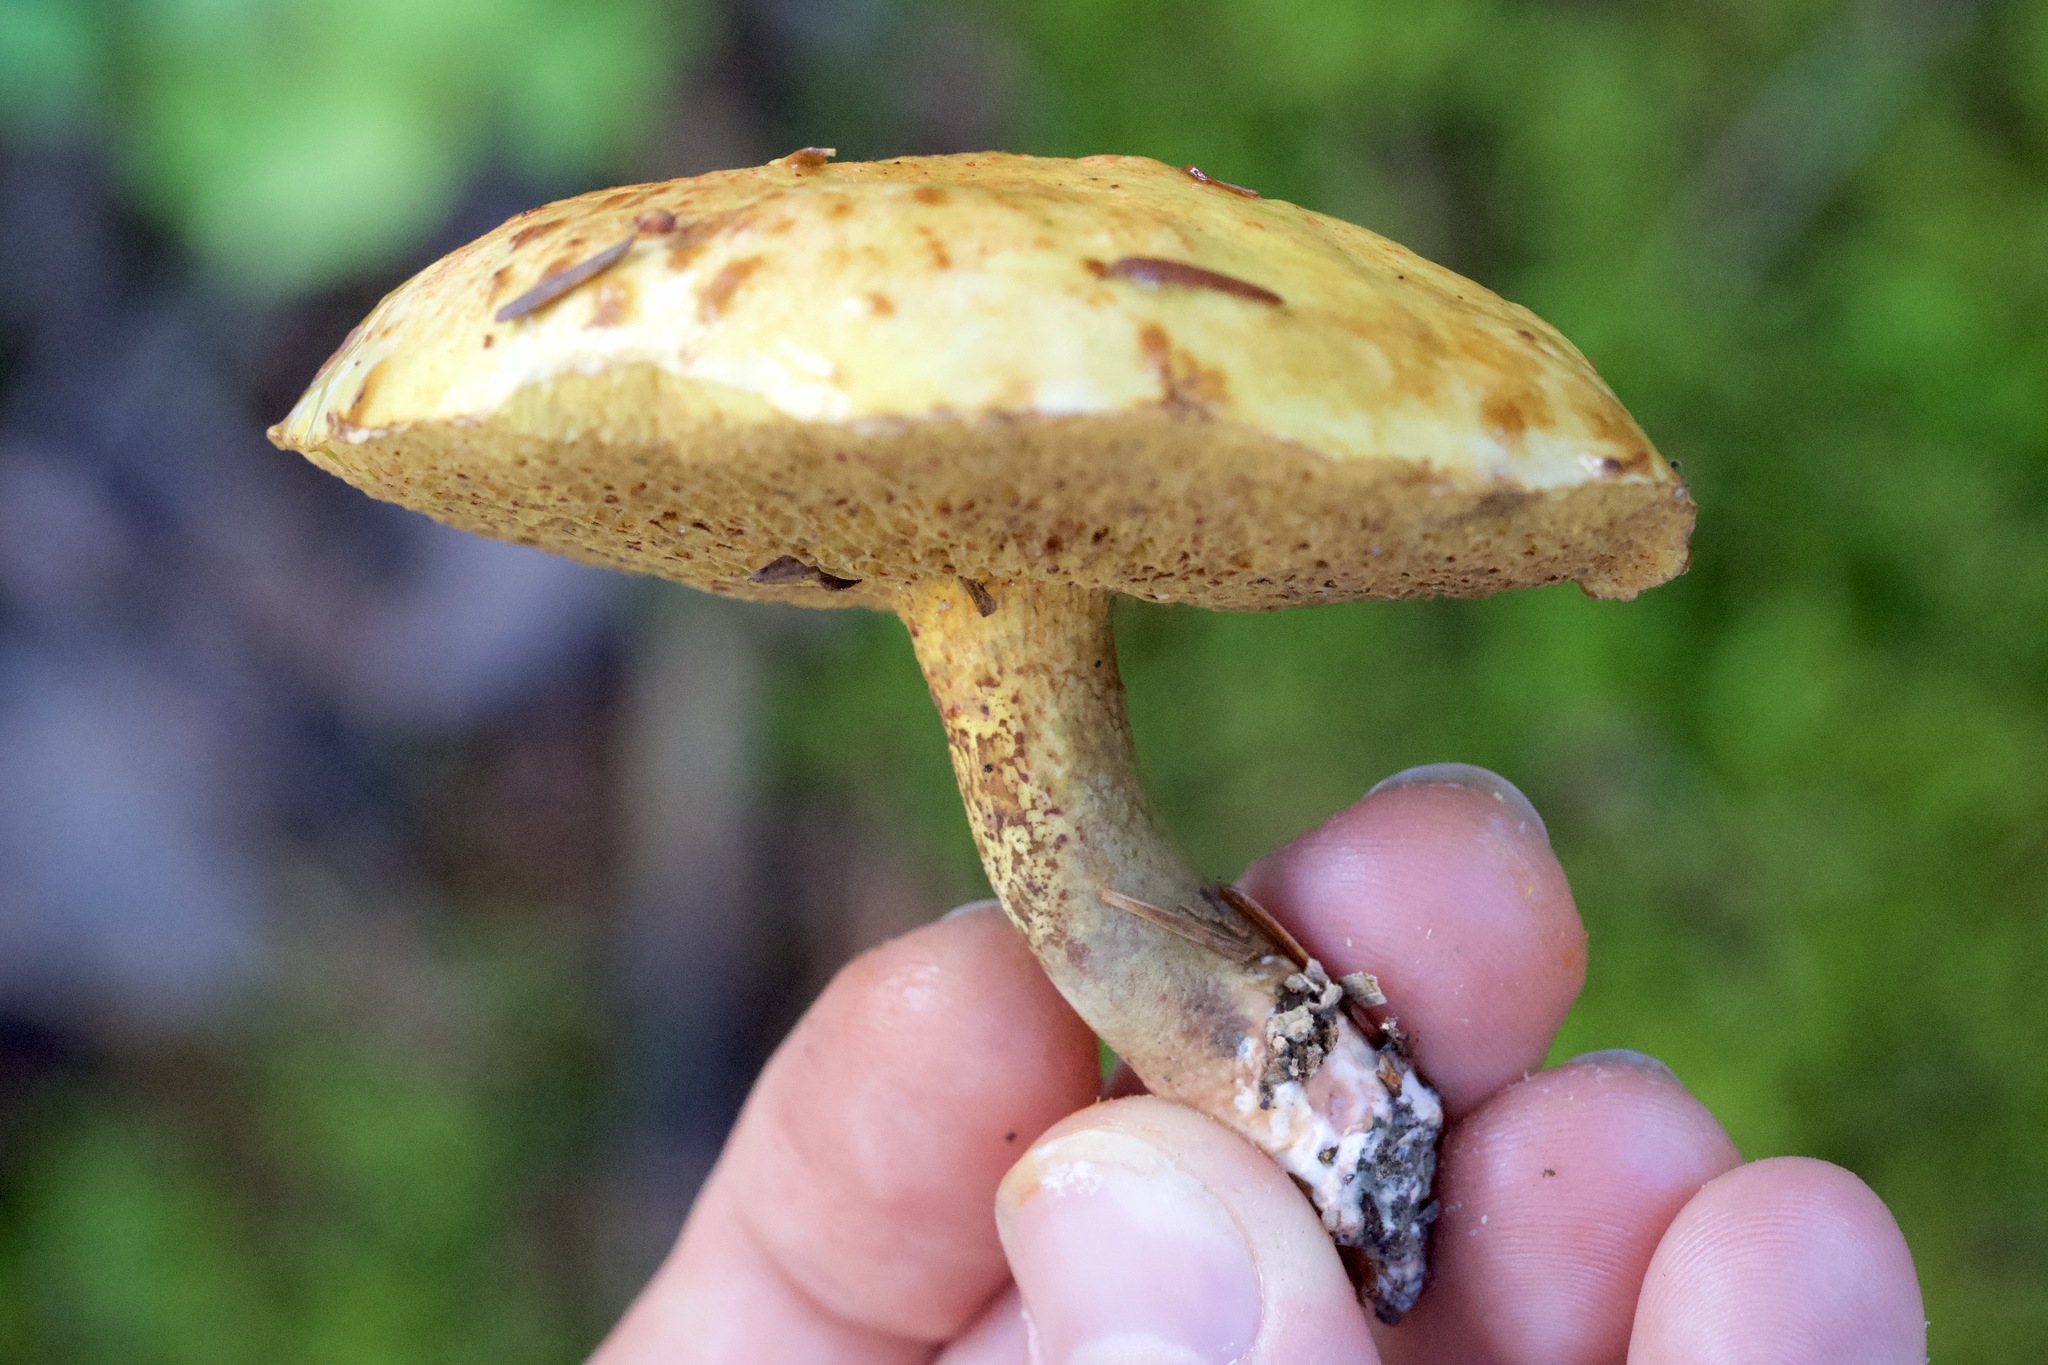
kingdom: Fungi
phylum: Basidiomycota
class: Agaricomycetes
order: Boletales
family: Suillaceae
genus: Suillus
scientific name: Suillus americanus
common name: Chicken fat mushroom
